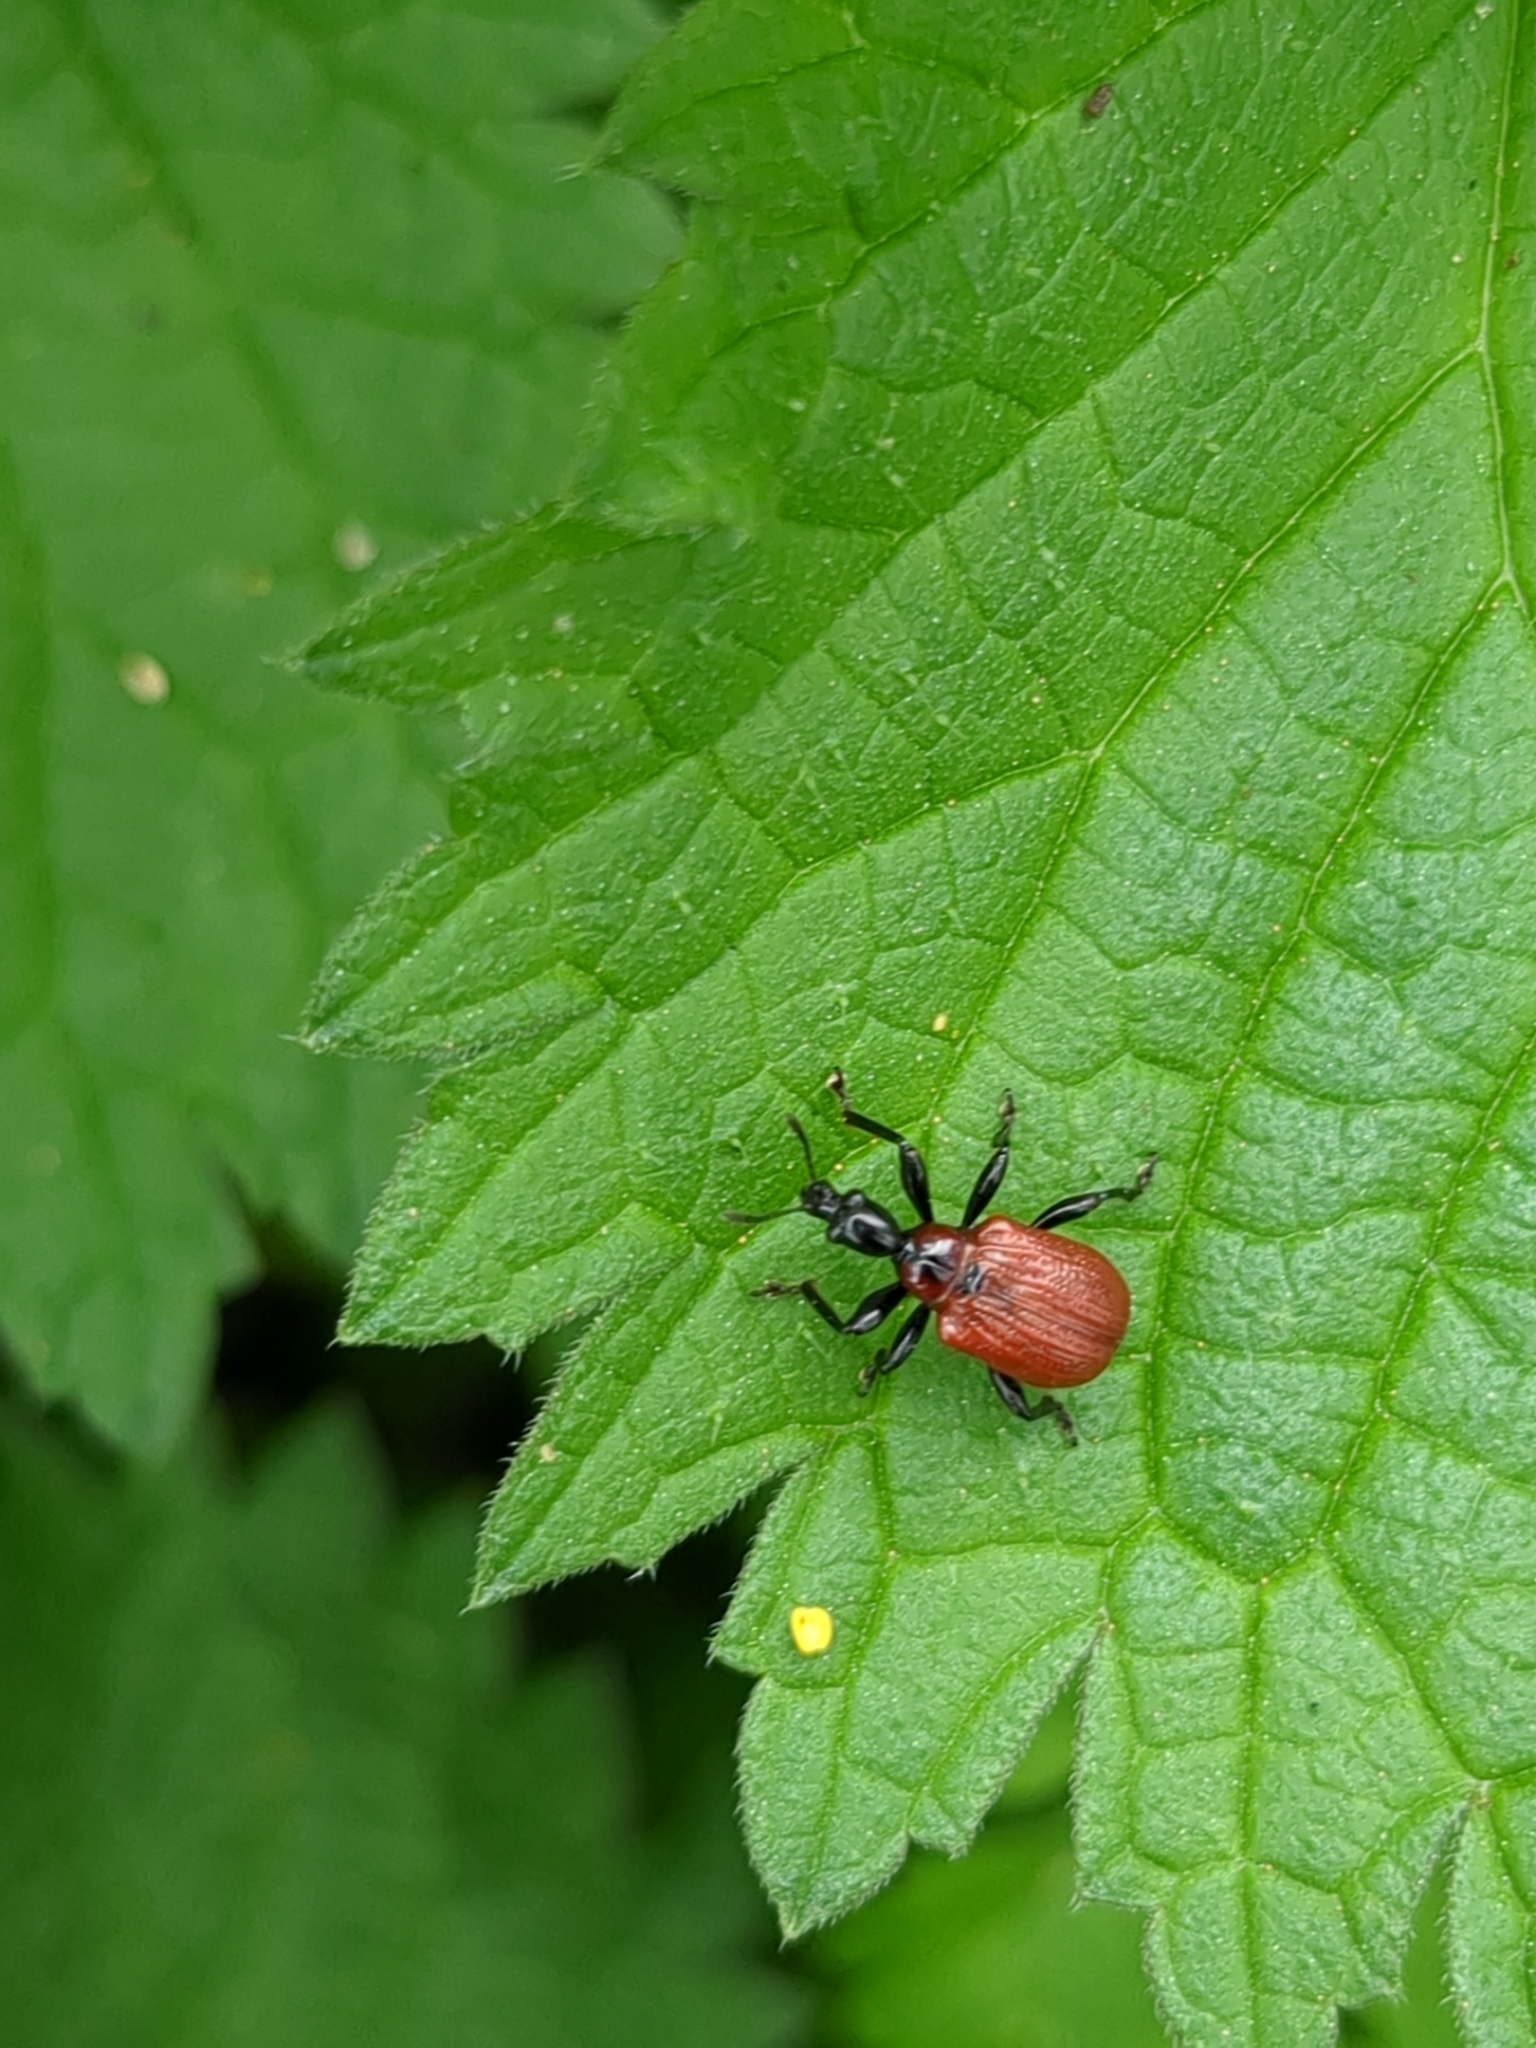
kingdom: Animalia
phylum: Arthropoda
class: Insecta
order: Coleoptera
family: Attelabidae
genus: Apoderus
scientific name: Apoderus coryli
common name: Hazel leaf roller
